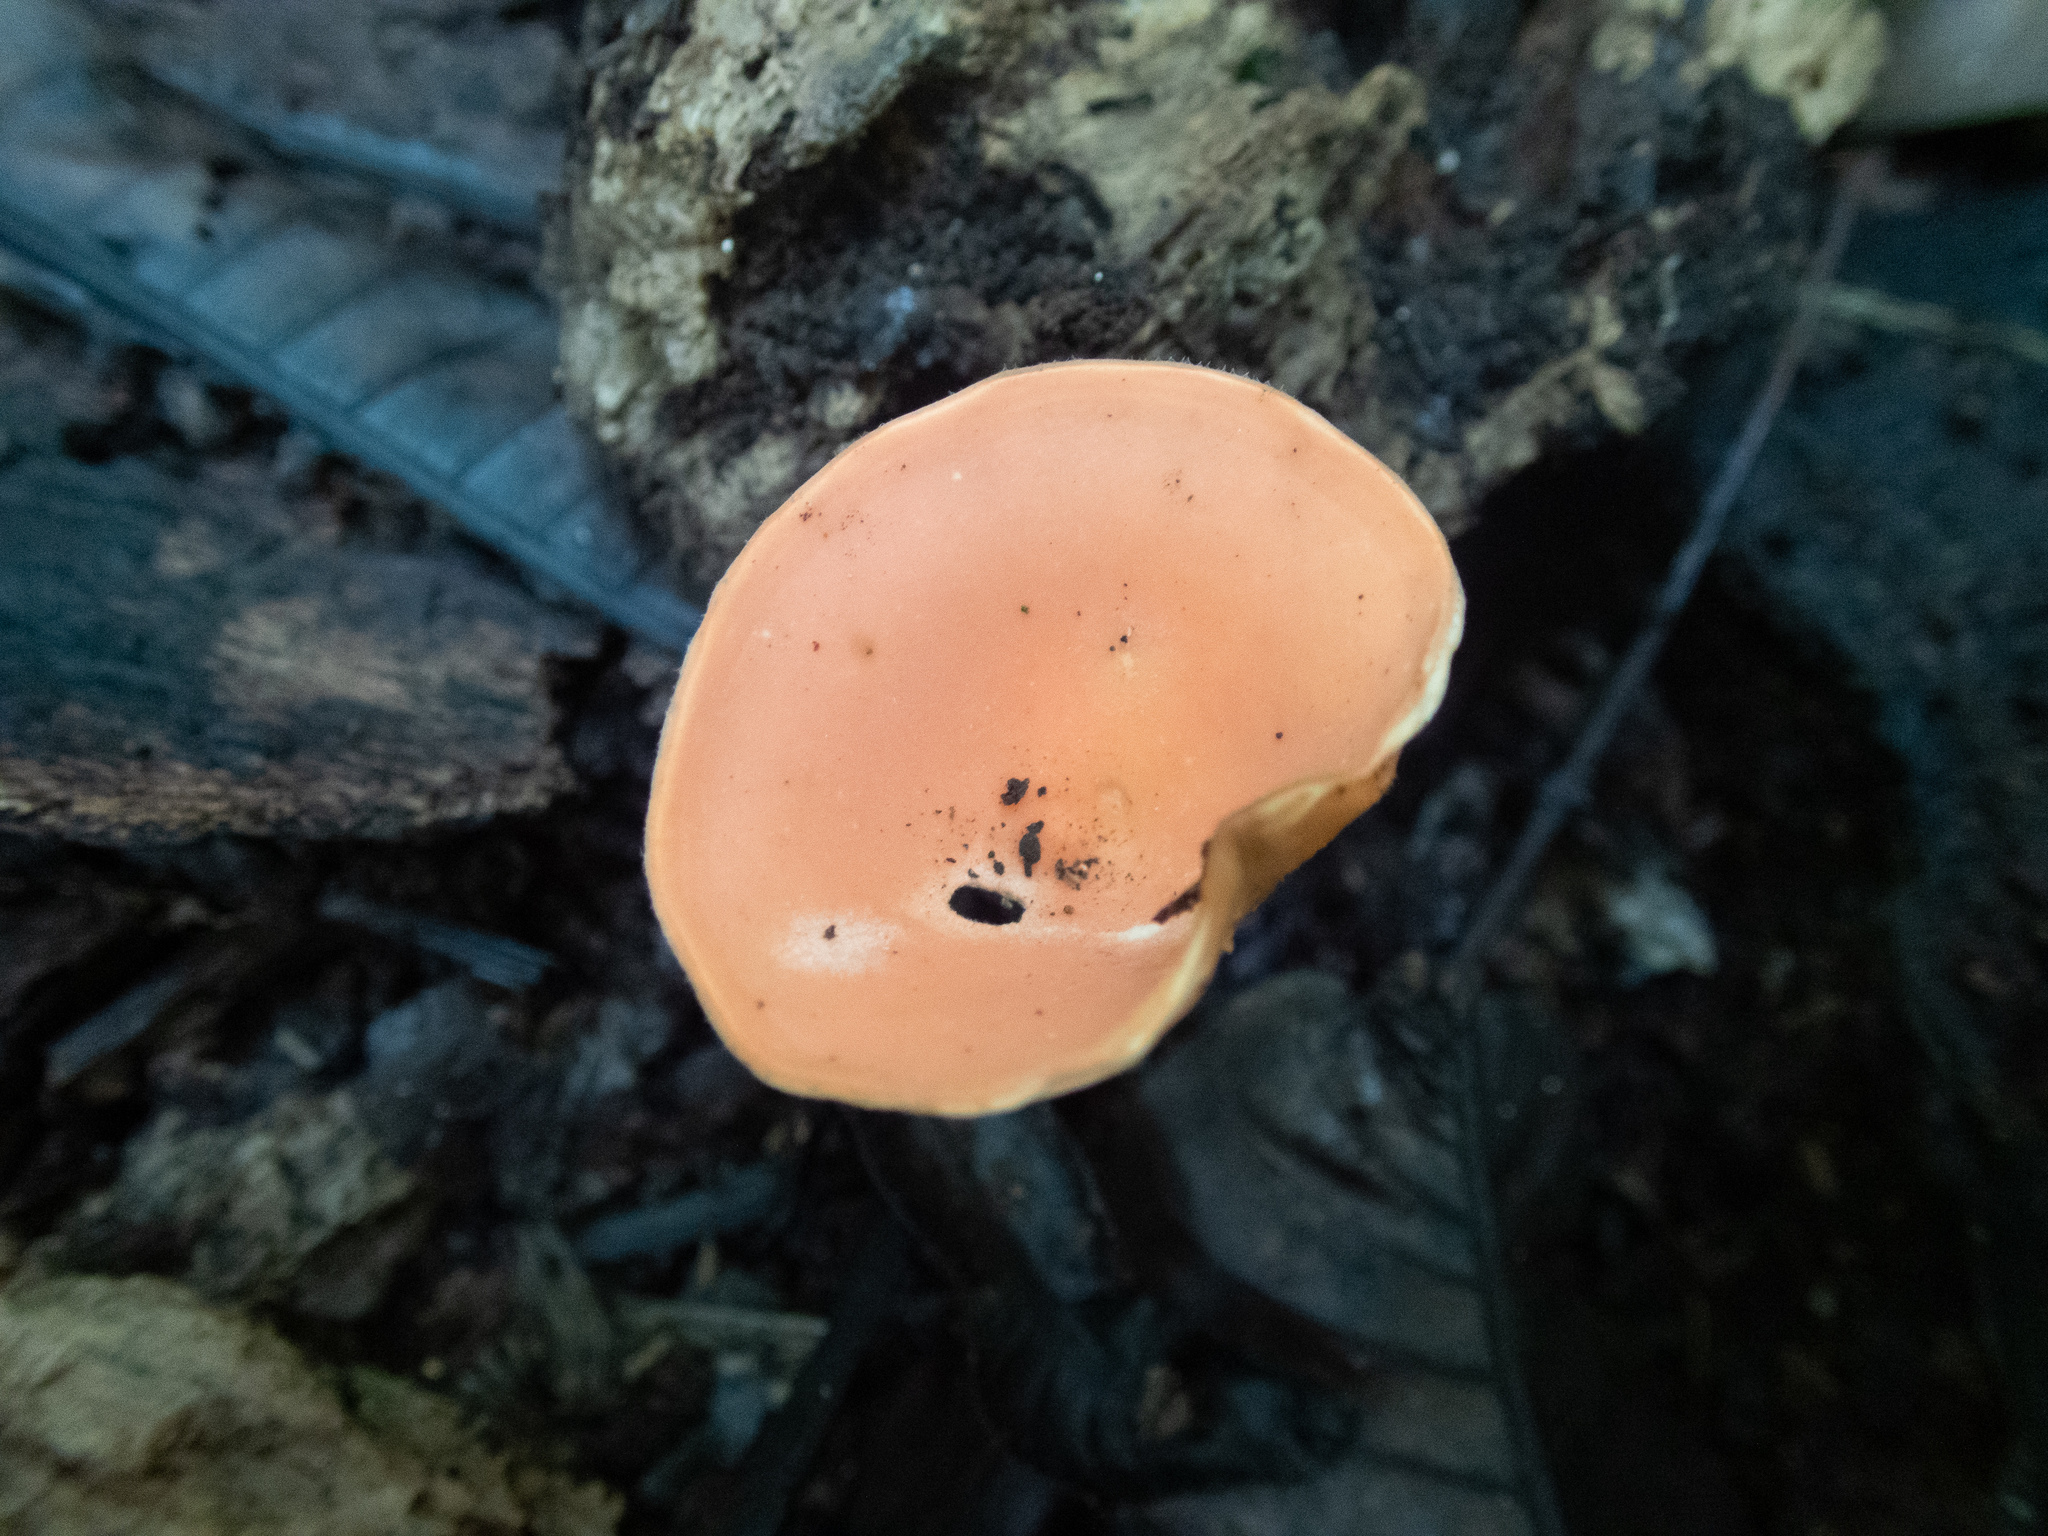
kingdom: Fungi
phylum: Ascomycota
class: Pezizomycetes
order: Pezizales
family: Sarcoscyphaceae
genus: Cookeina
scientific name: Cookeina tricholoma
